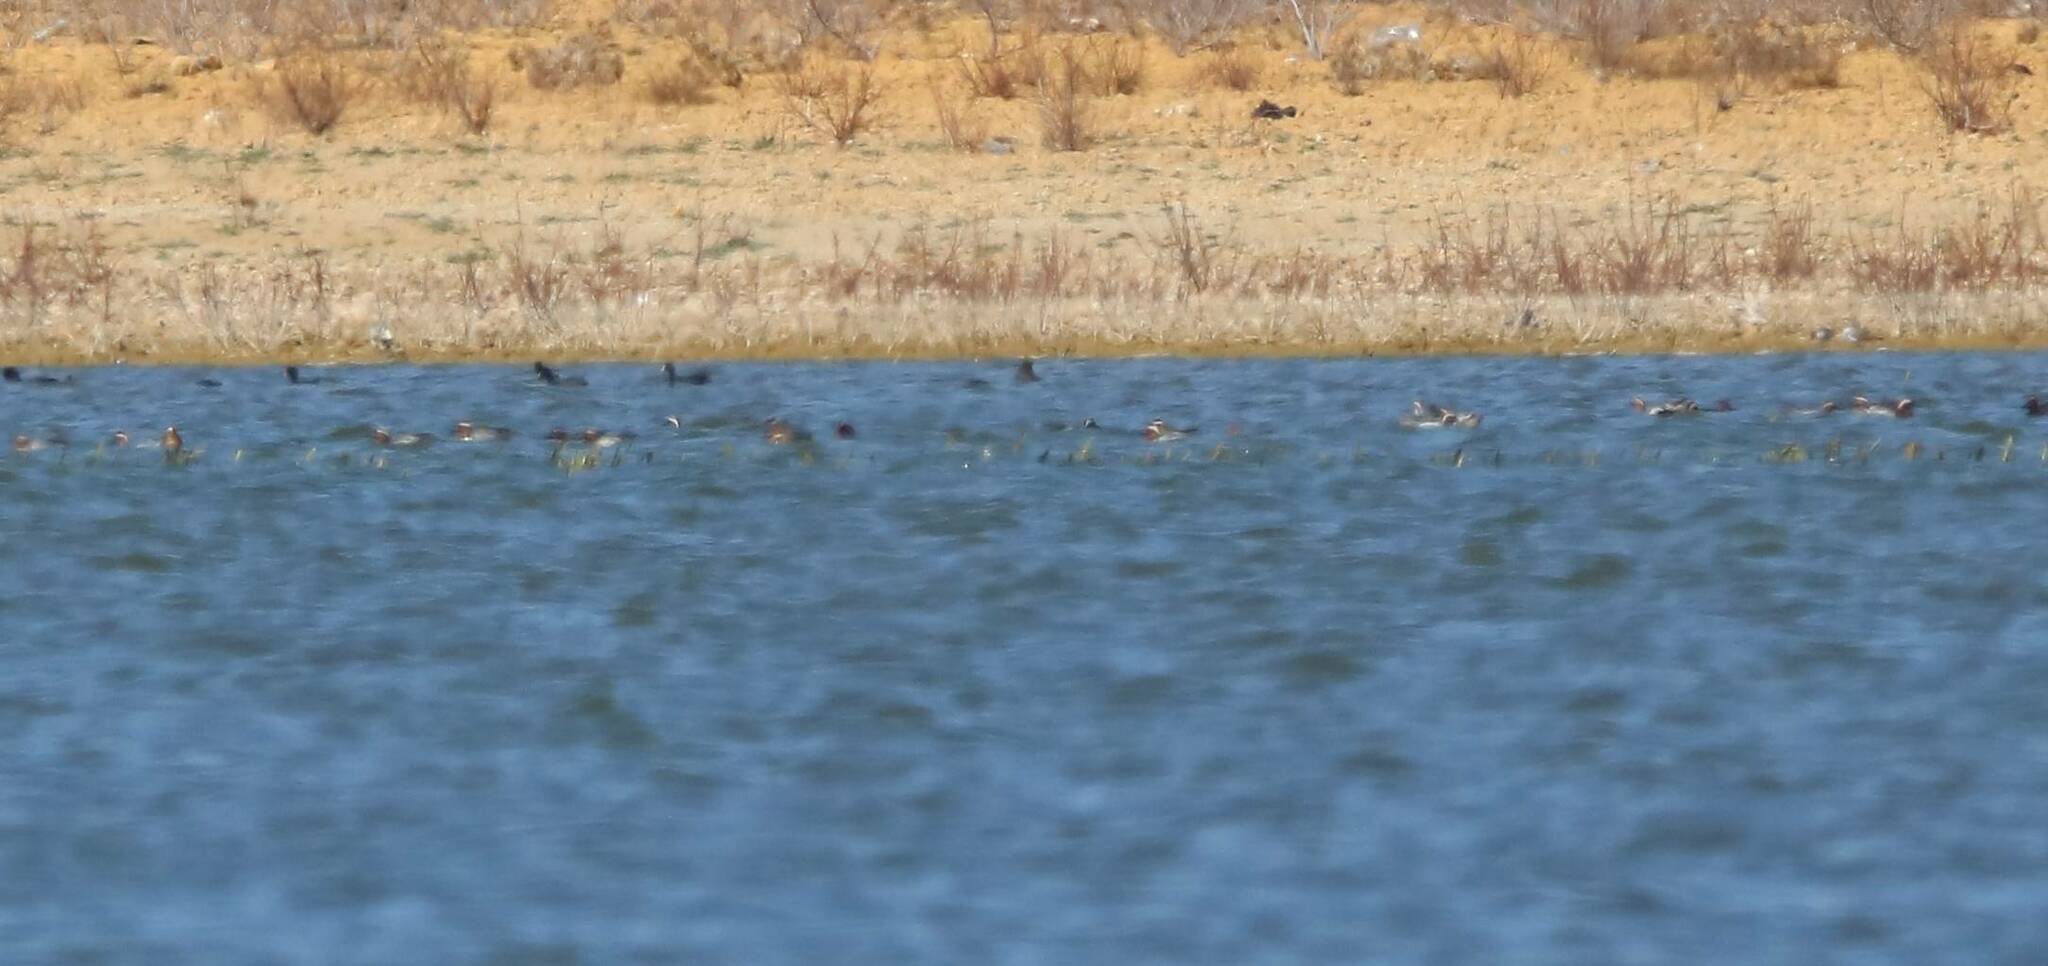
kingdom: Animalia
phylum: Chordata
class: Aves
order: Anseriformes
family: Anatidae
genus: Spatula
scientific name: Spatula querquedula
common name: Garganey
